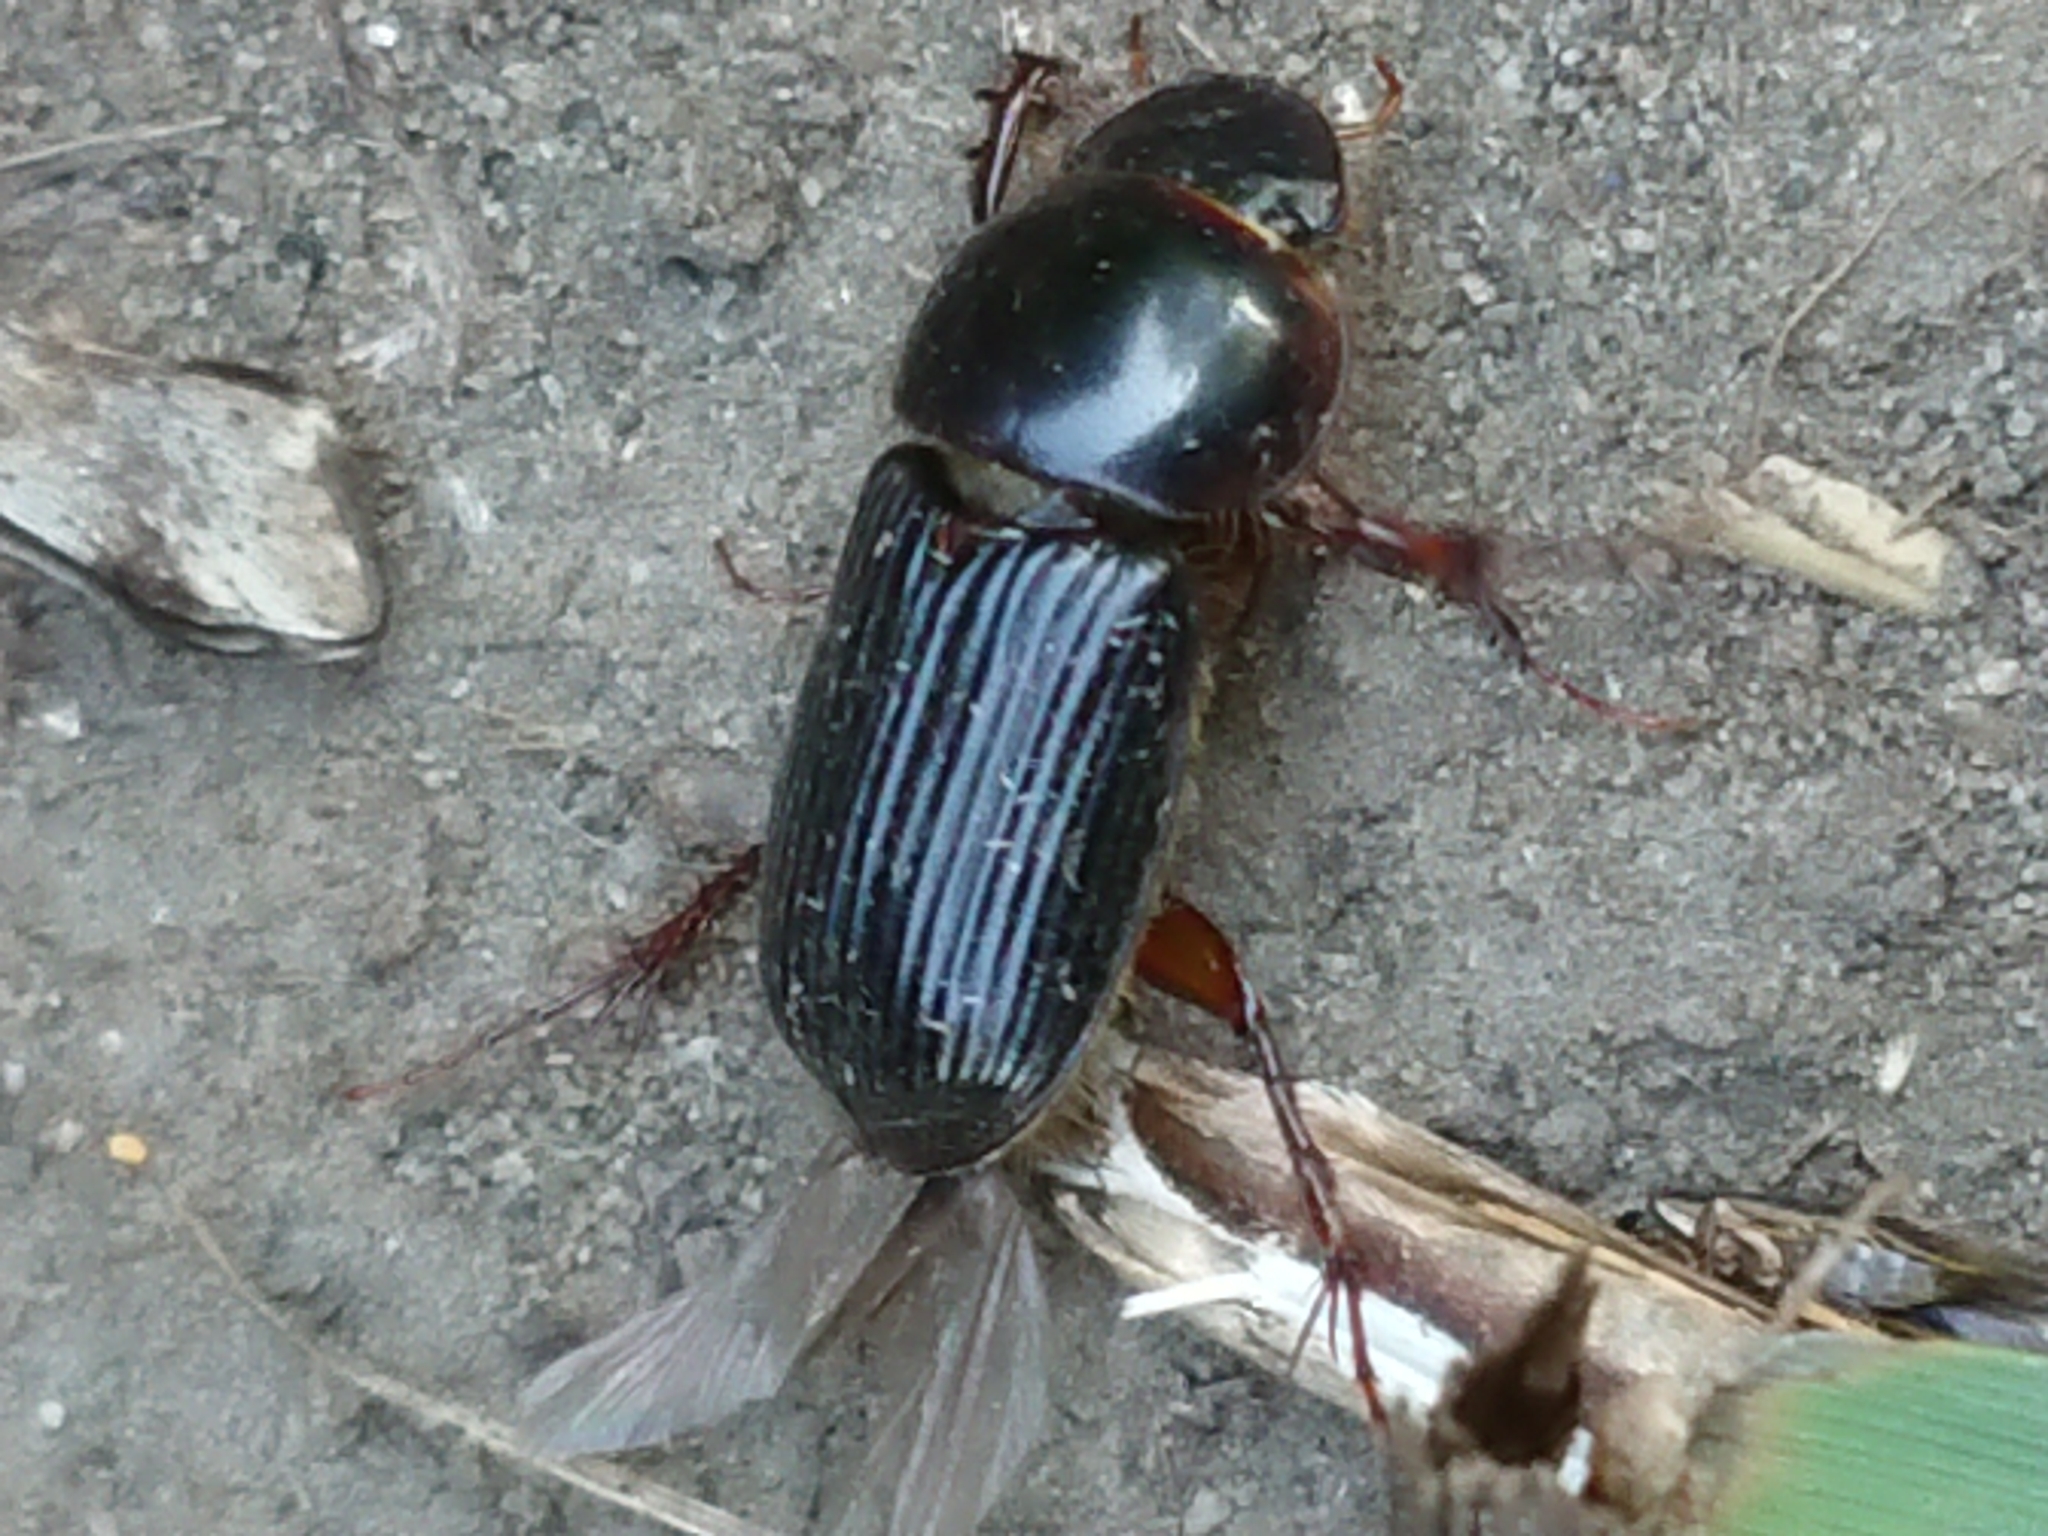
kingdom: Animalia
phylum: Arthropoda
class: Insecta
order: Coleoptera
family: Scarabaeidae
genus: Acrossidius
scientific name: Acrossidius tasmaniae
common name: Black-headed pasture cockchafer
